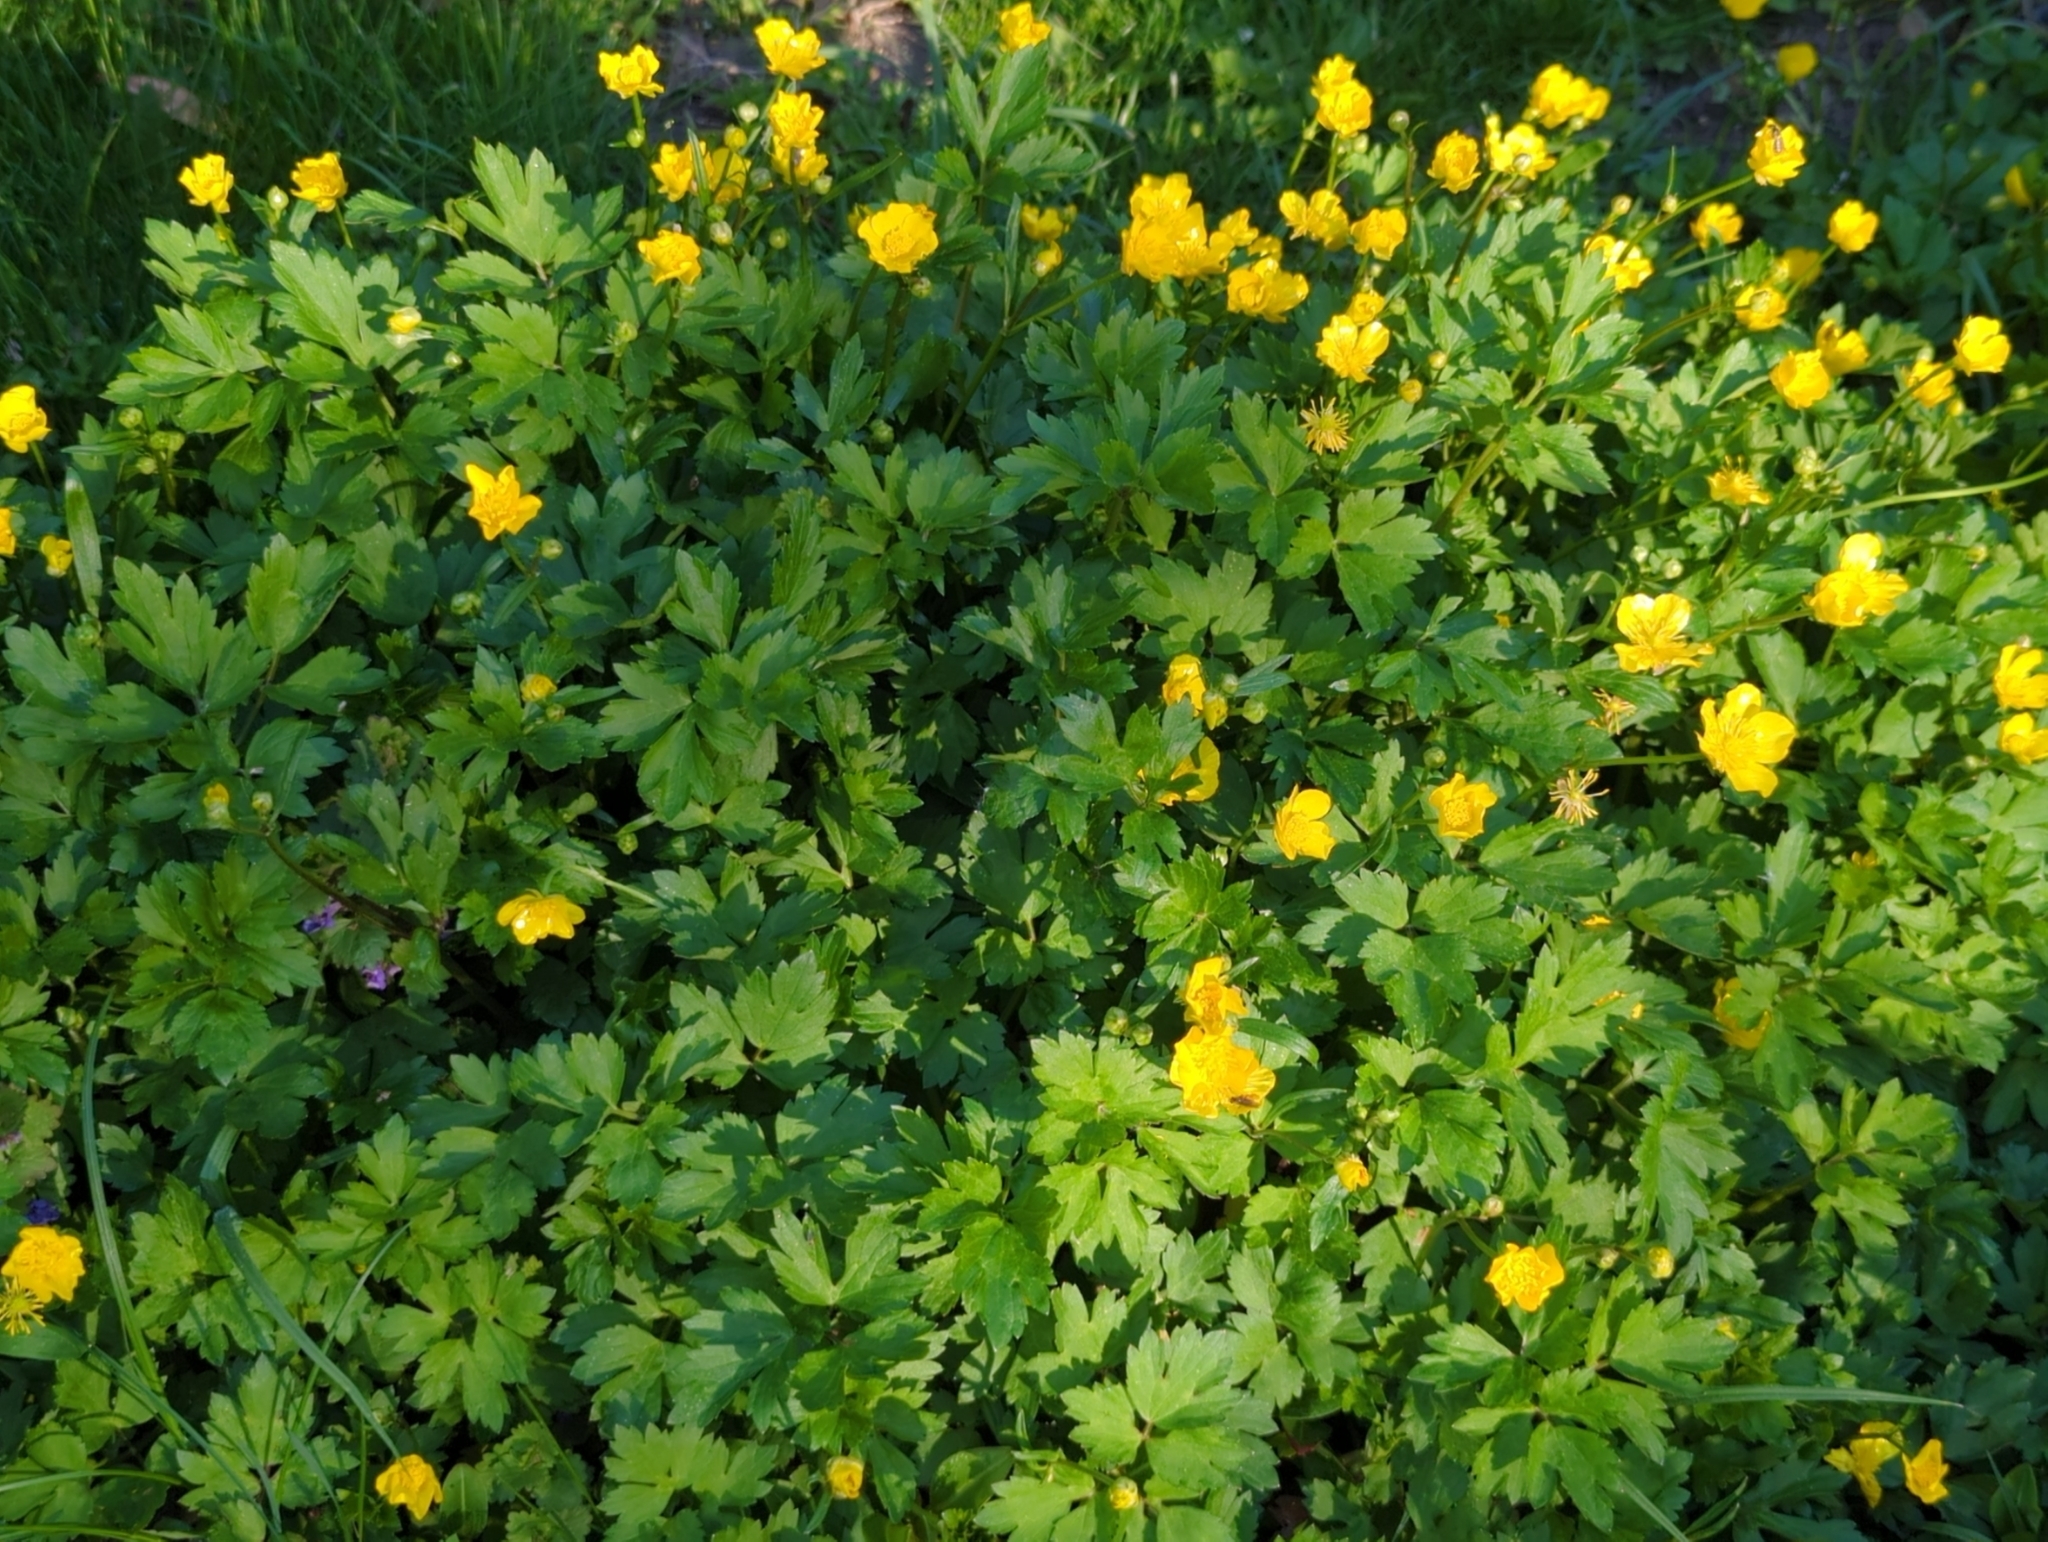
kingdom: Plantae
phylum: Tracheophyta
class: Magnoliopsida
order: Ranunculales
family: Ranunculaceae
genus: Ranunculus
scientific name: Ranunculus repens
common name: Creeping buttercup
